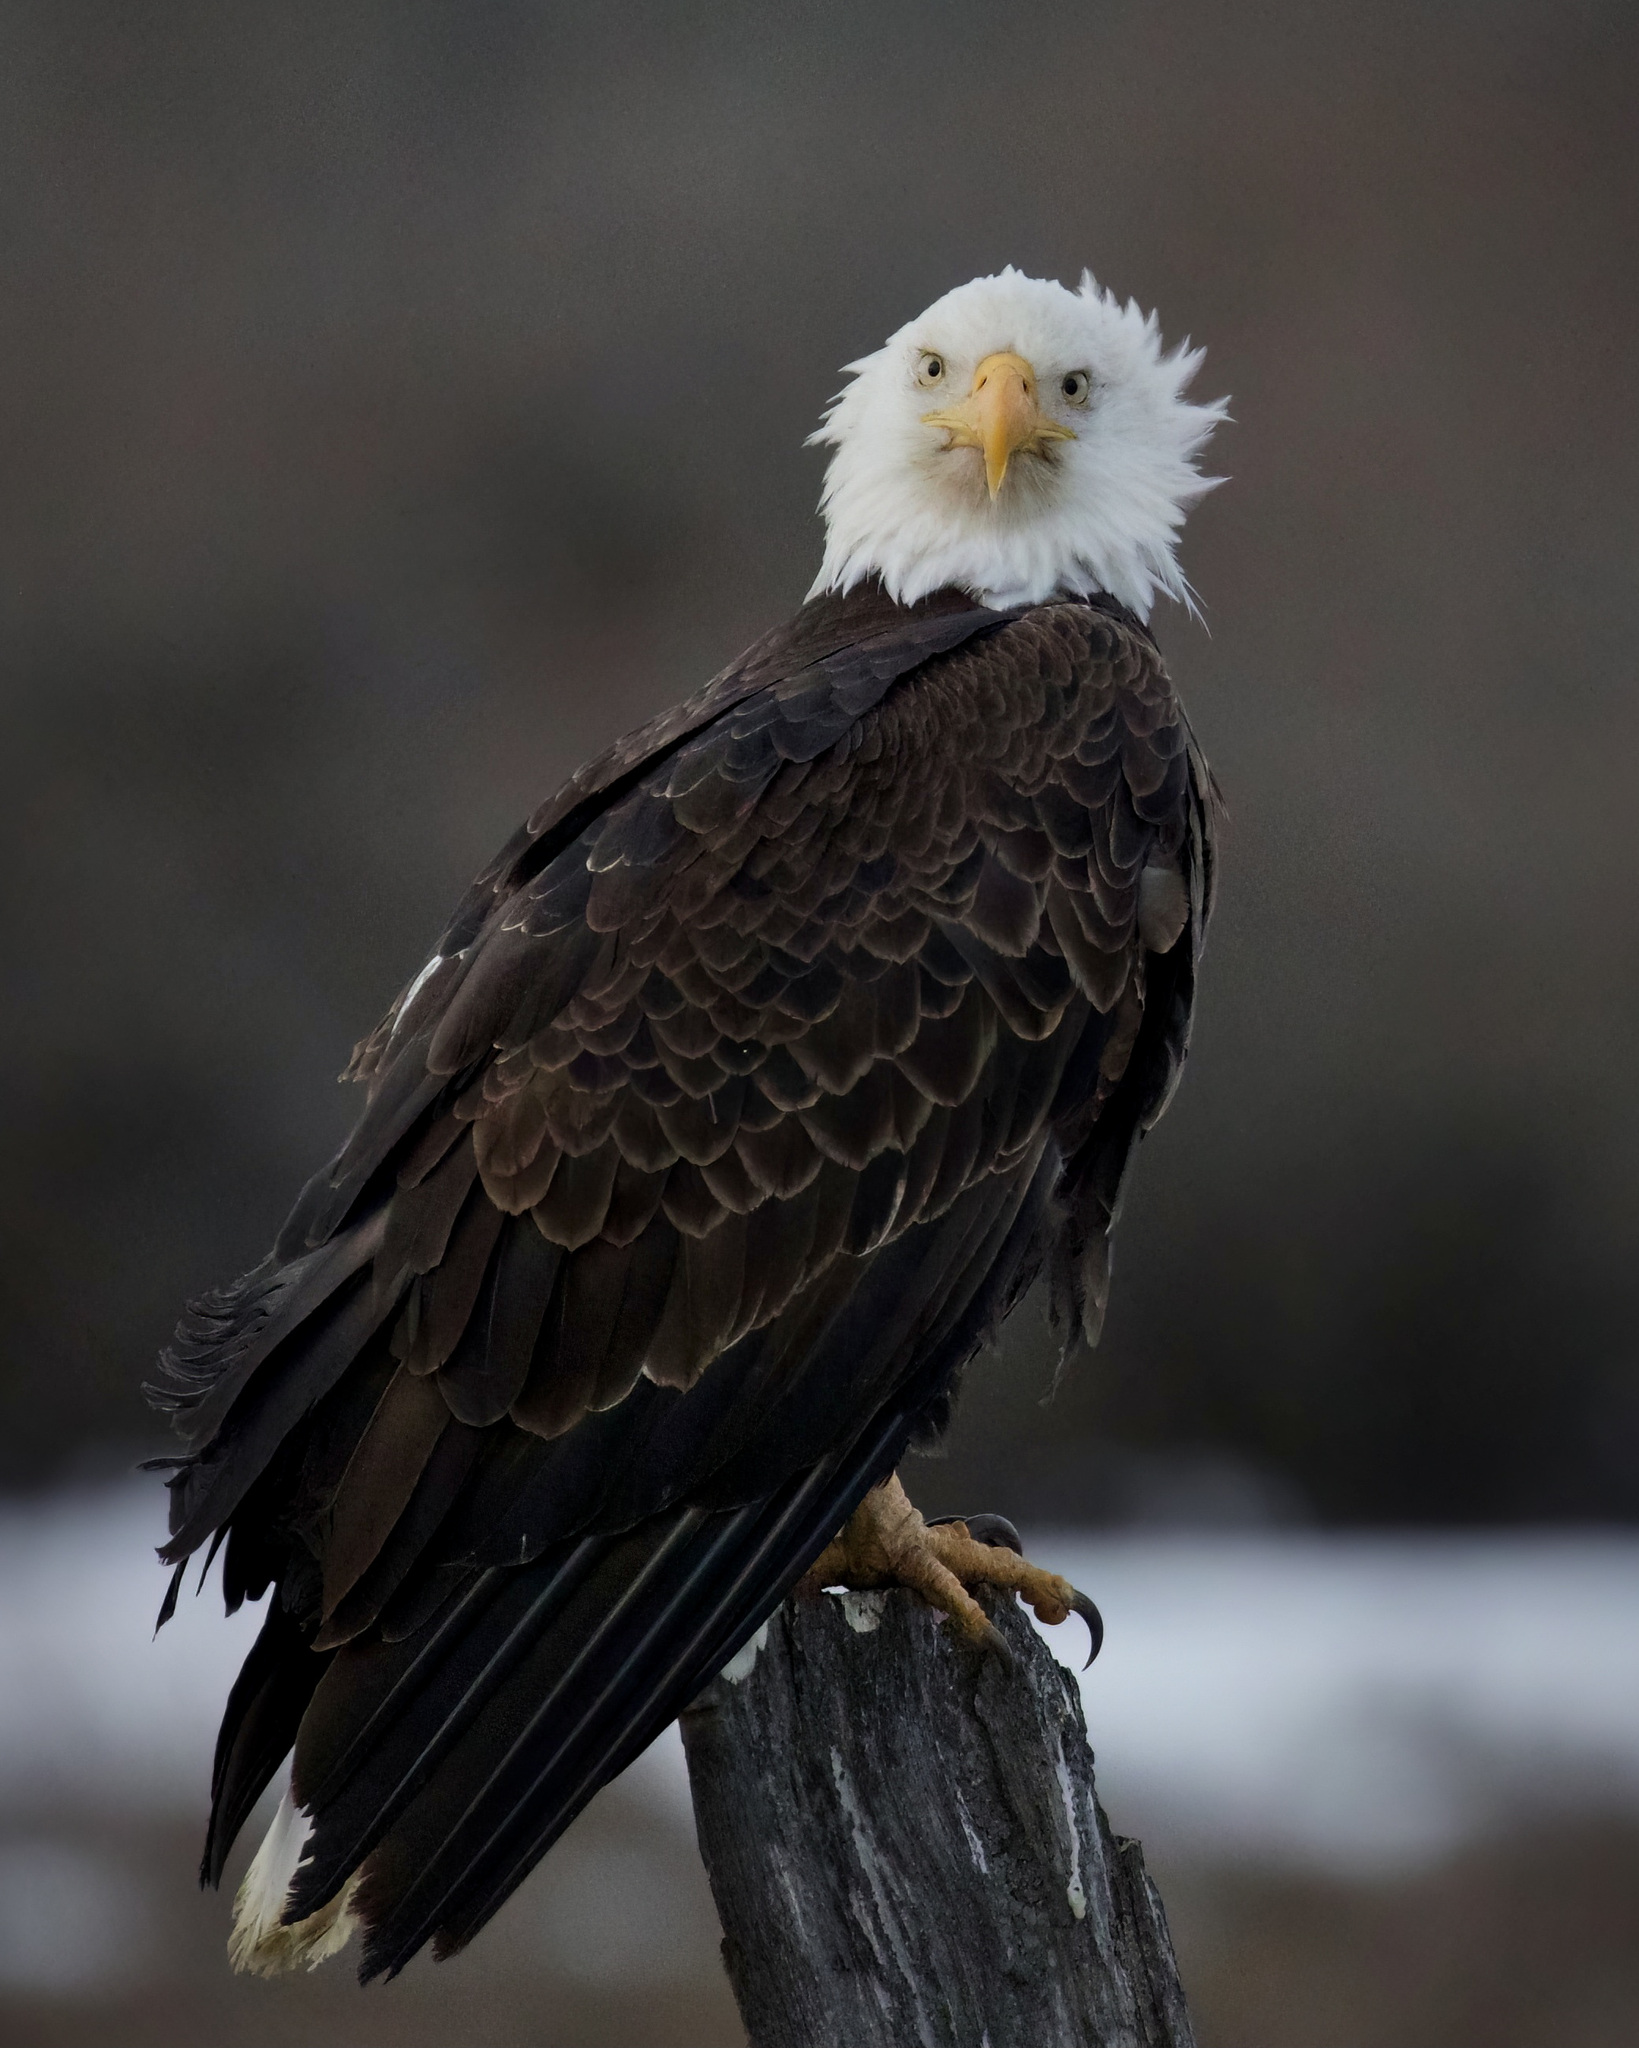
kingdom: Animalia
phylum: Chordata
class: Aves
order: Accipitriformes
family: Accipitridae
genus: Haliaeetus
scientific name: Haliaeetus leucocephalus
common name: Bald eagle
